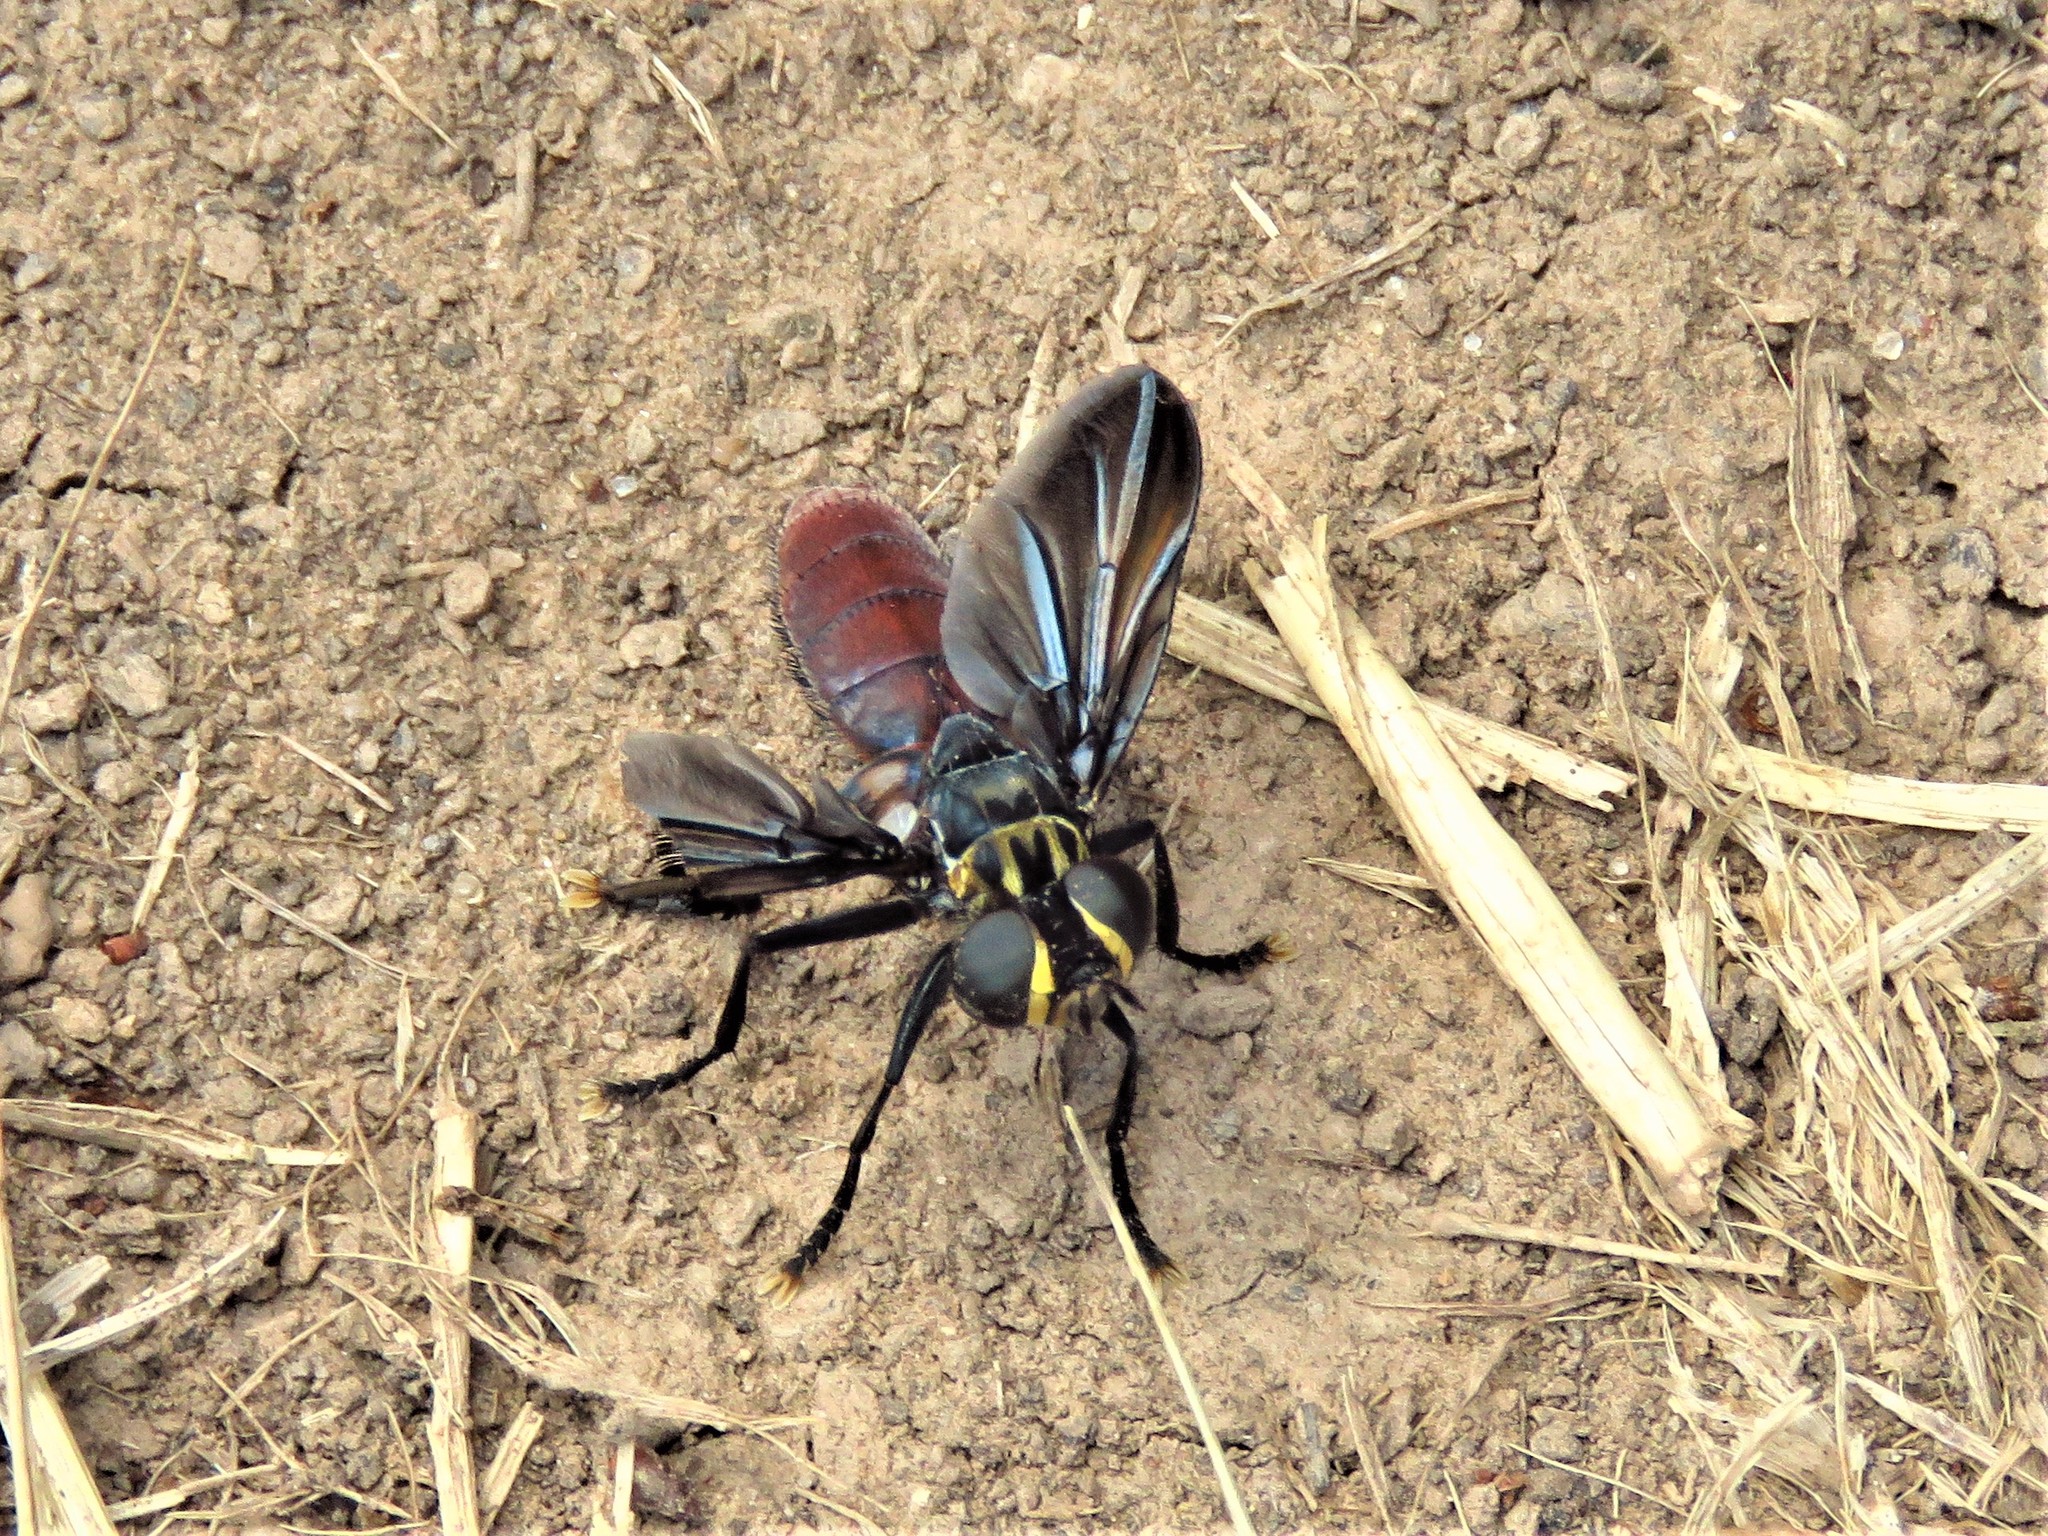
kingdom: Animalia
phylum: Arthropoda
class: Insecta
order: Diptera
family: Tachinidae
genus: Trichopoda
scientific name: Trichopoda lanipes
